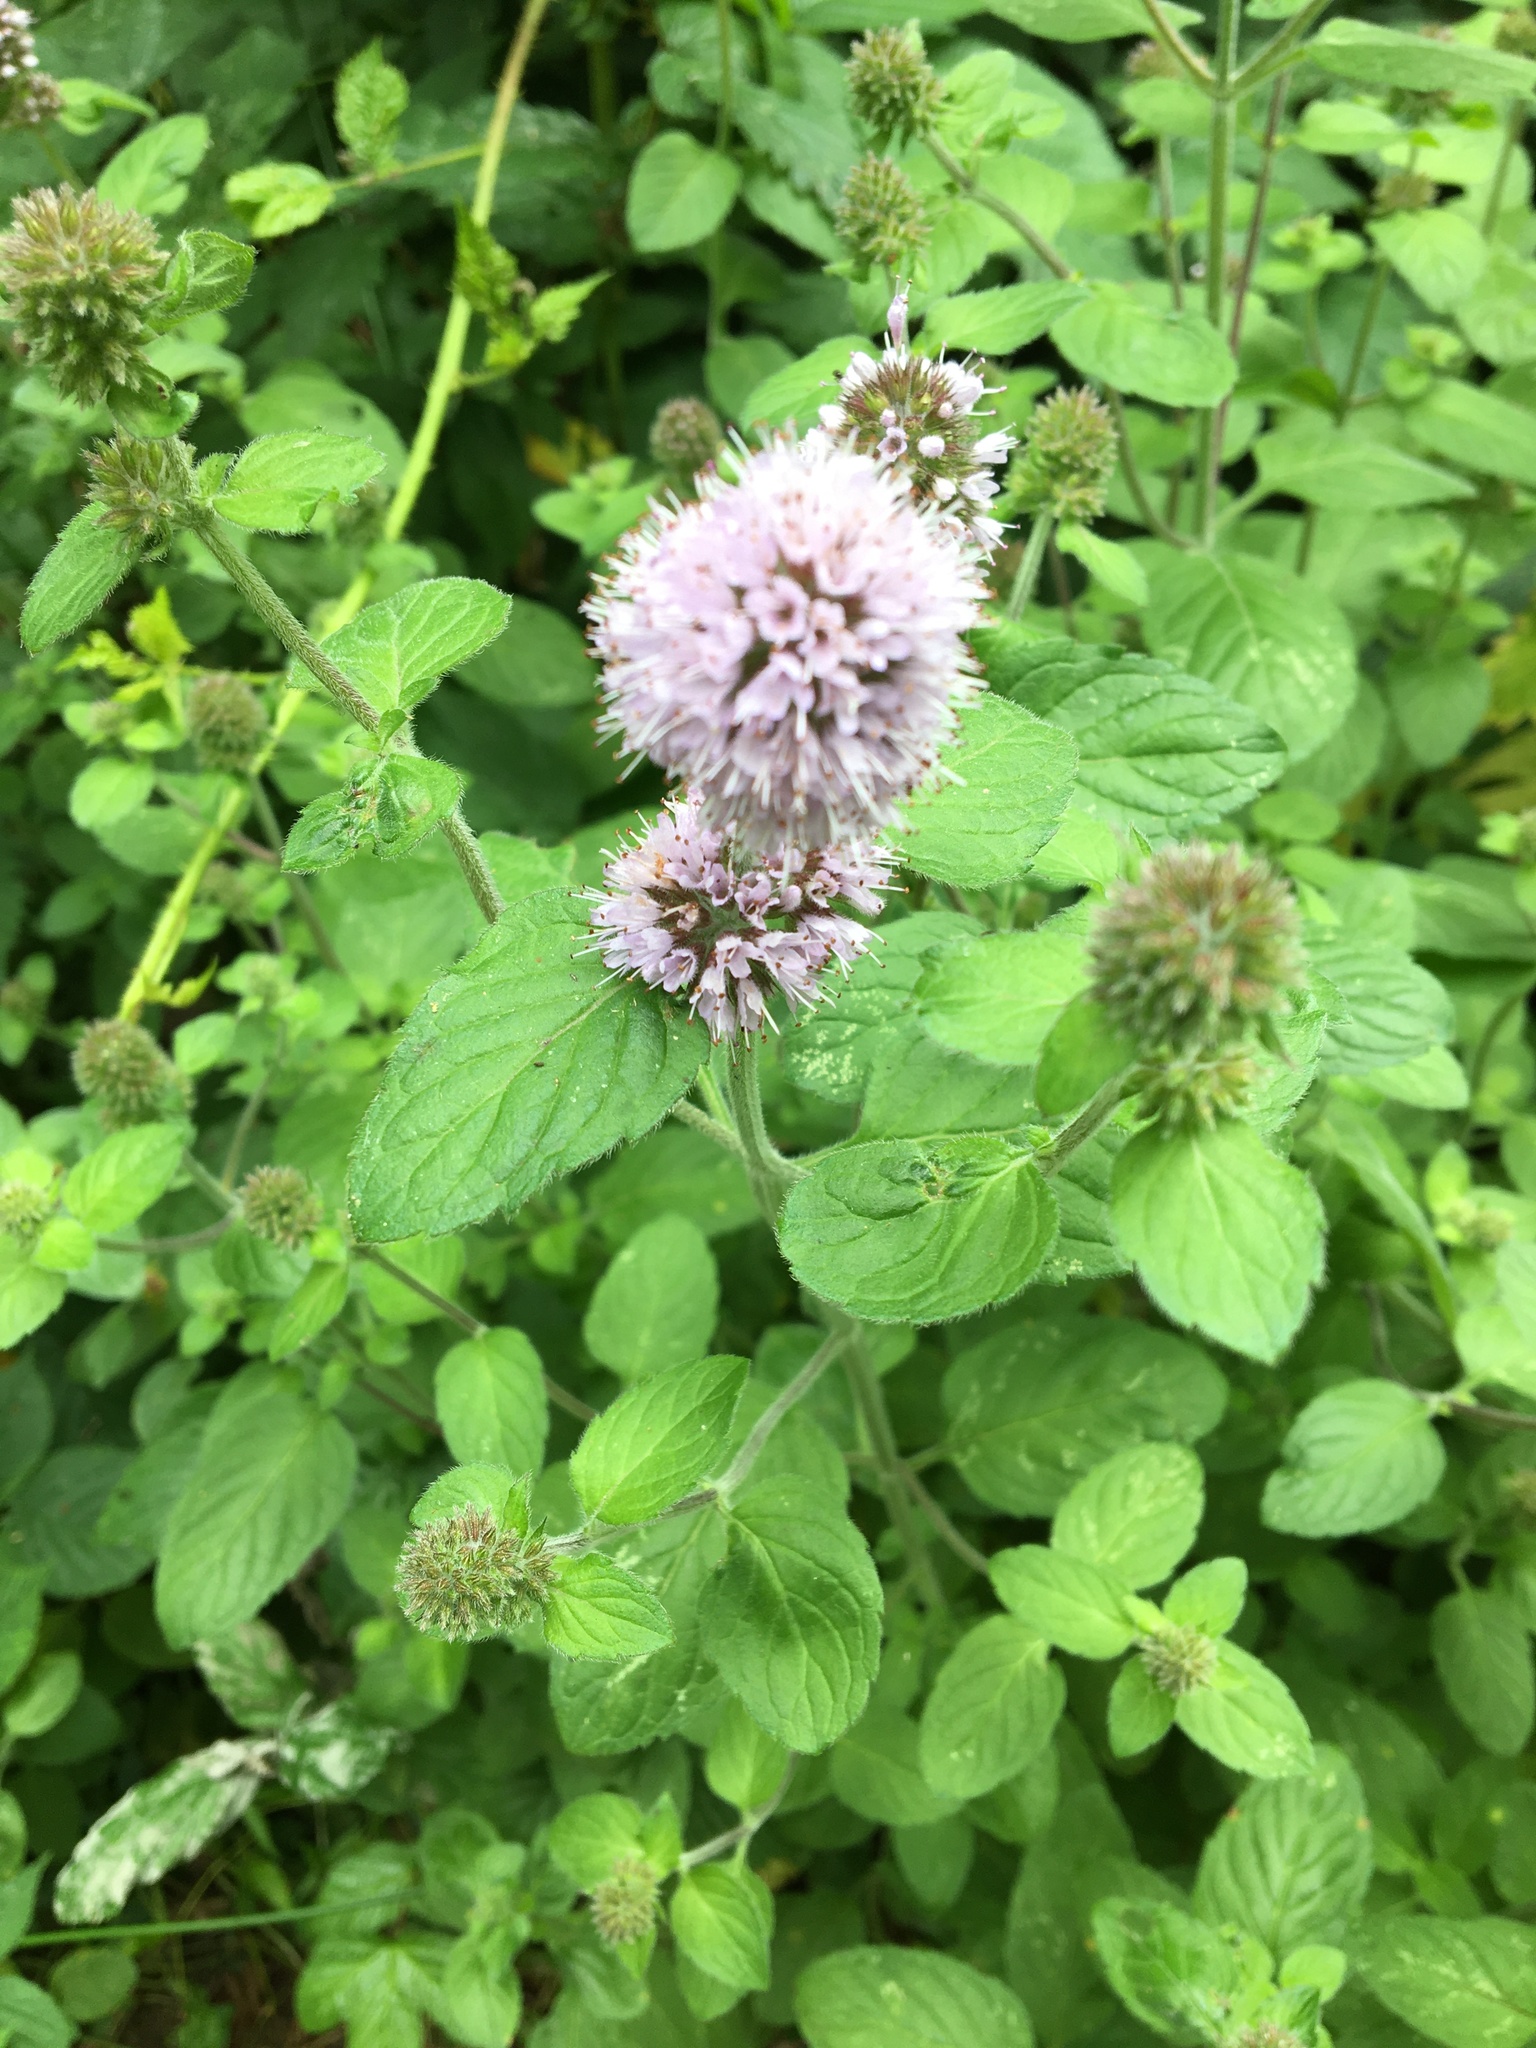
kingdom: Plantae
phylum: Tracheophyta
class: Magnoliopsida
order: Lamiales
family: Lamiaceae
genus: Mentha
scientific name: Mentha aquatica
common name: Water mint
